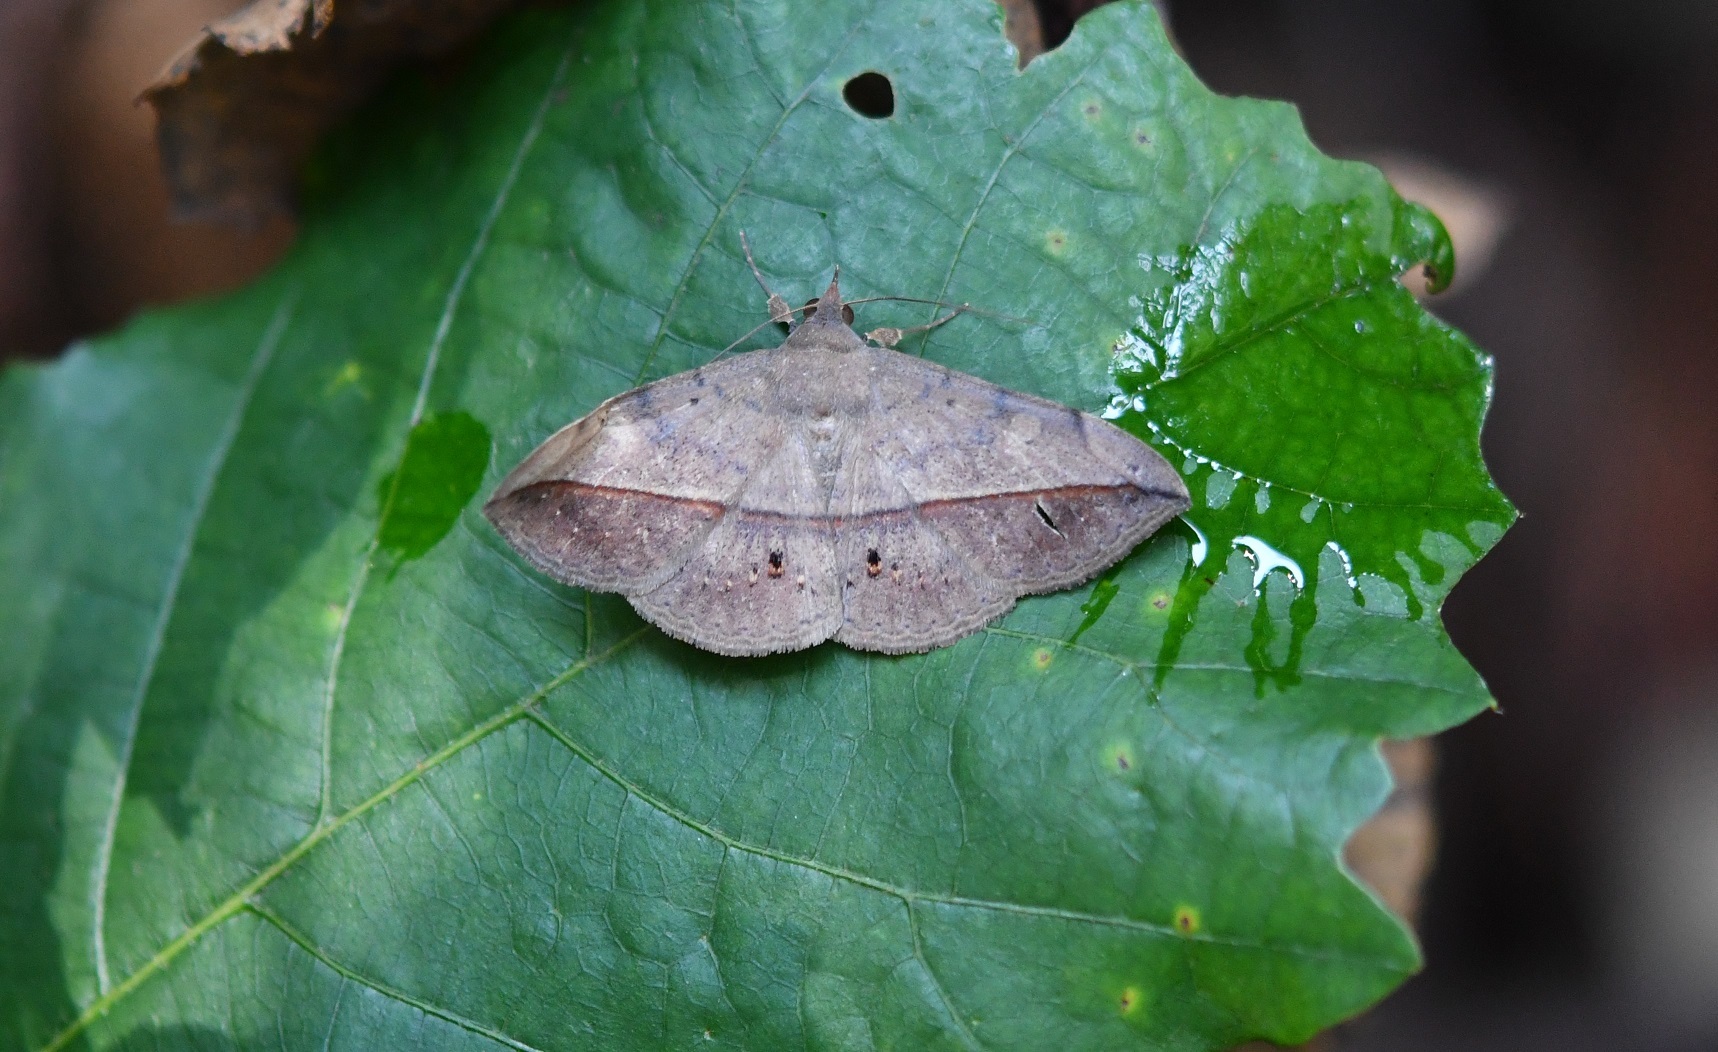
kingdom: Animalia
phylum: Arthropoda
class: Insecta
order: Lepidoptera
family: Erebidae
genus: Anticarsia
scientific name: Anticarsia gemmatalis
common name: Cutworm moth
